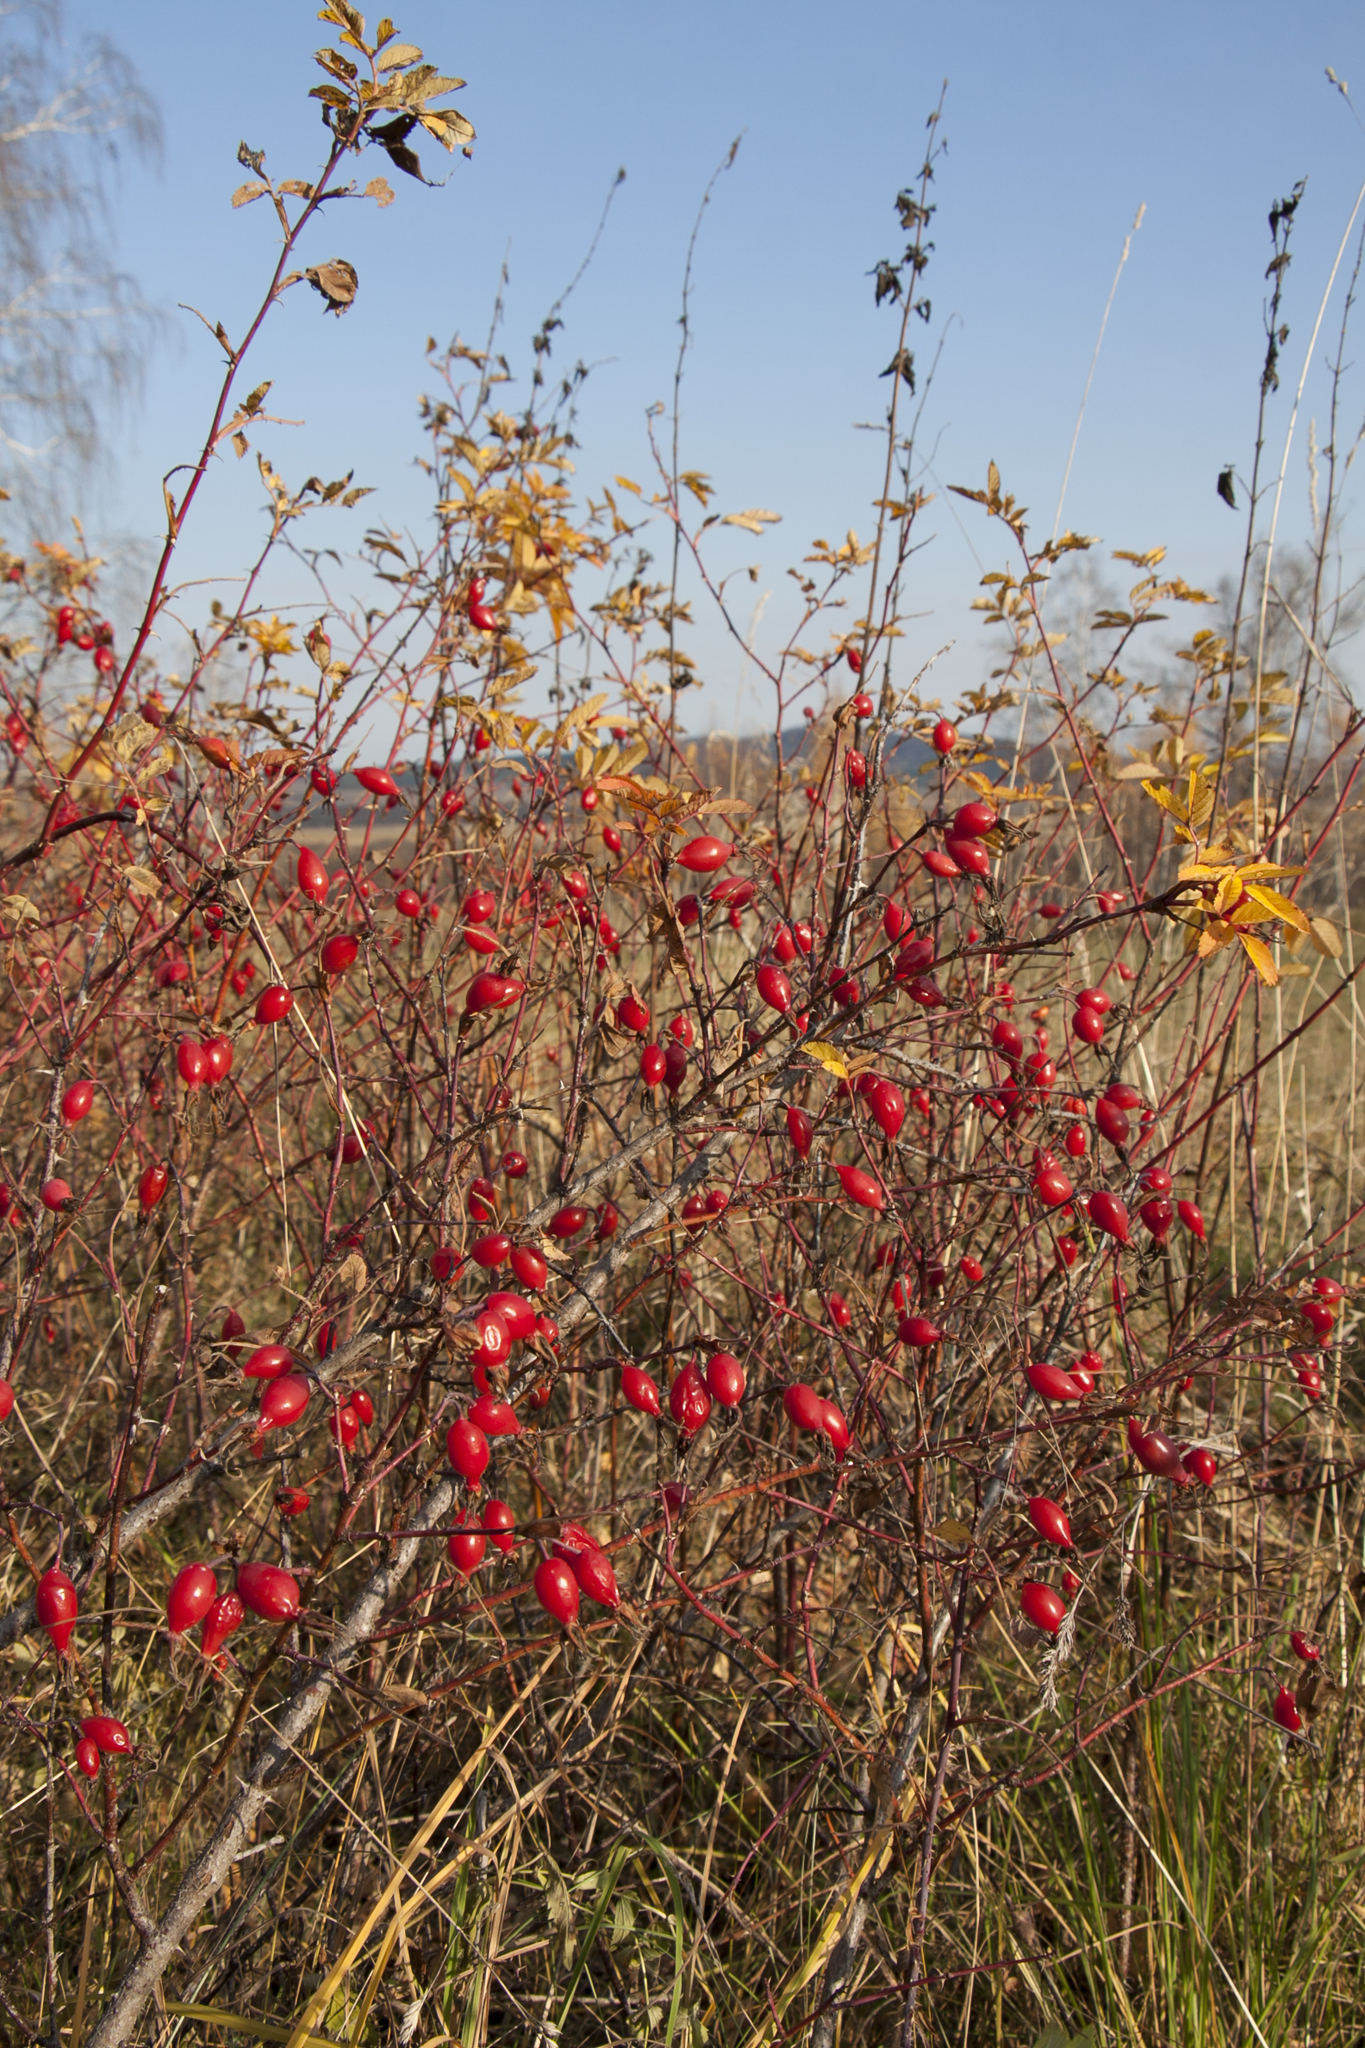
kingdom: Plantae
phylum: Tracheophyta
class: Magnoliopsida
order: Rosales
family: Rosaceae
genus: Rosa
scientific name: Rosa glabrifolia
